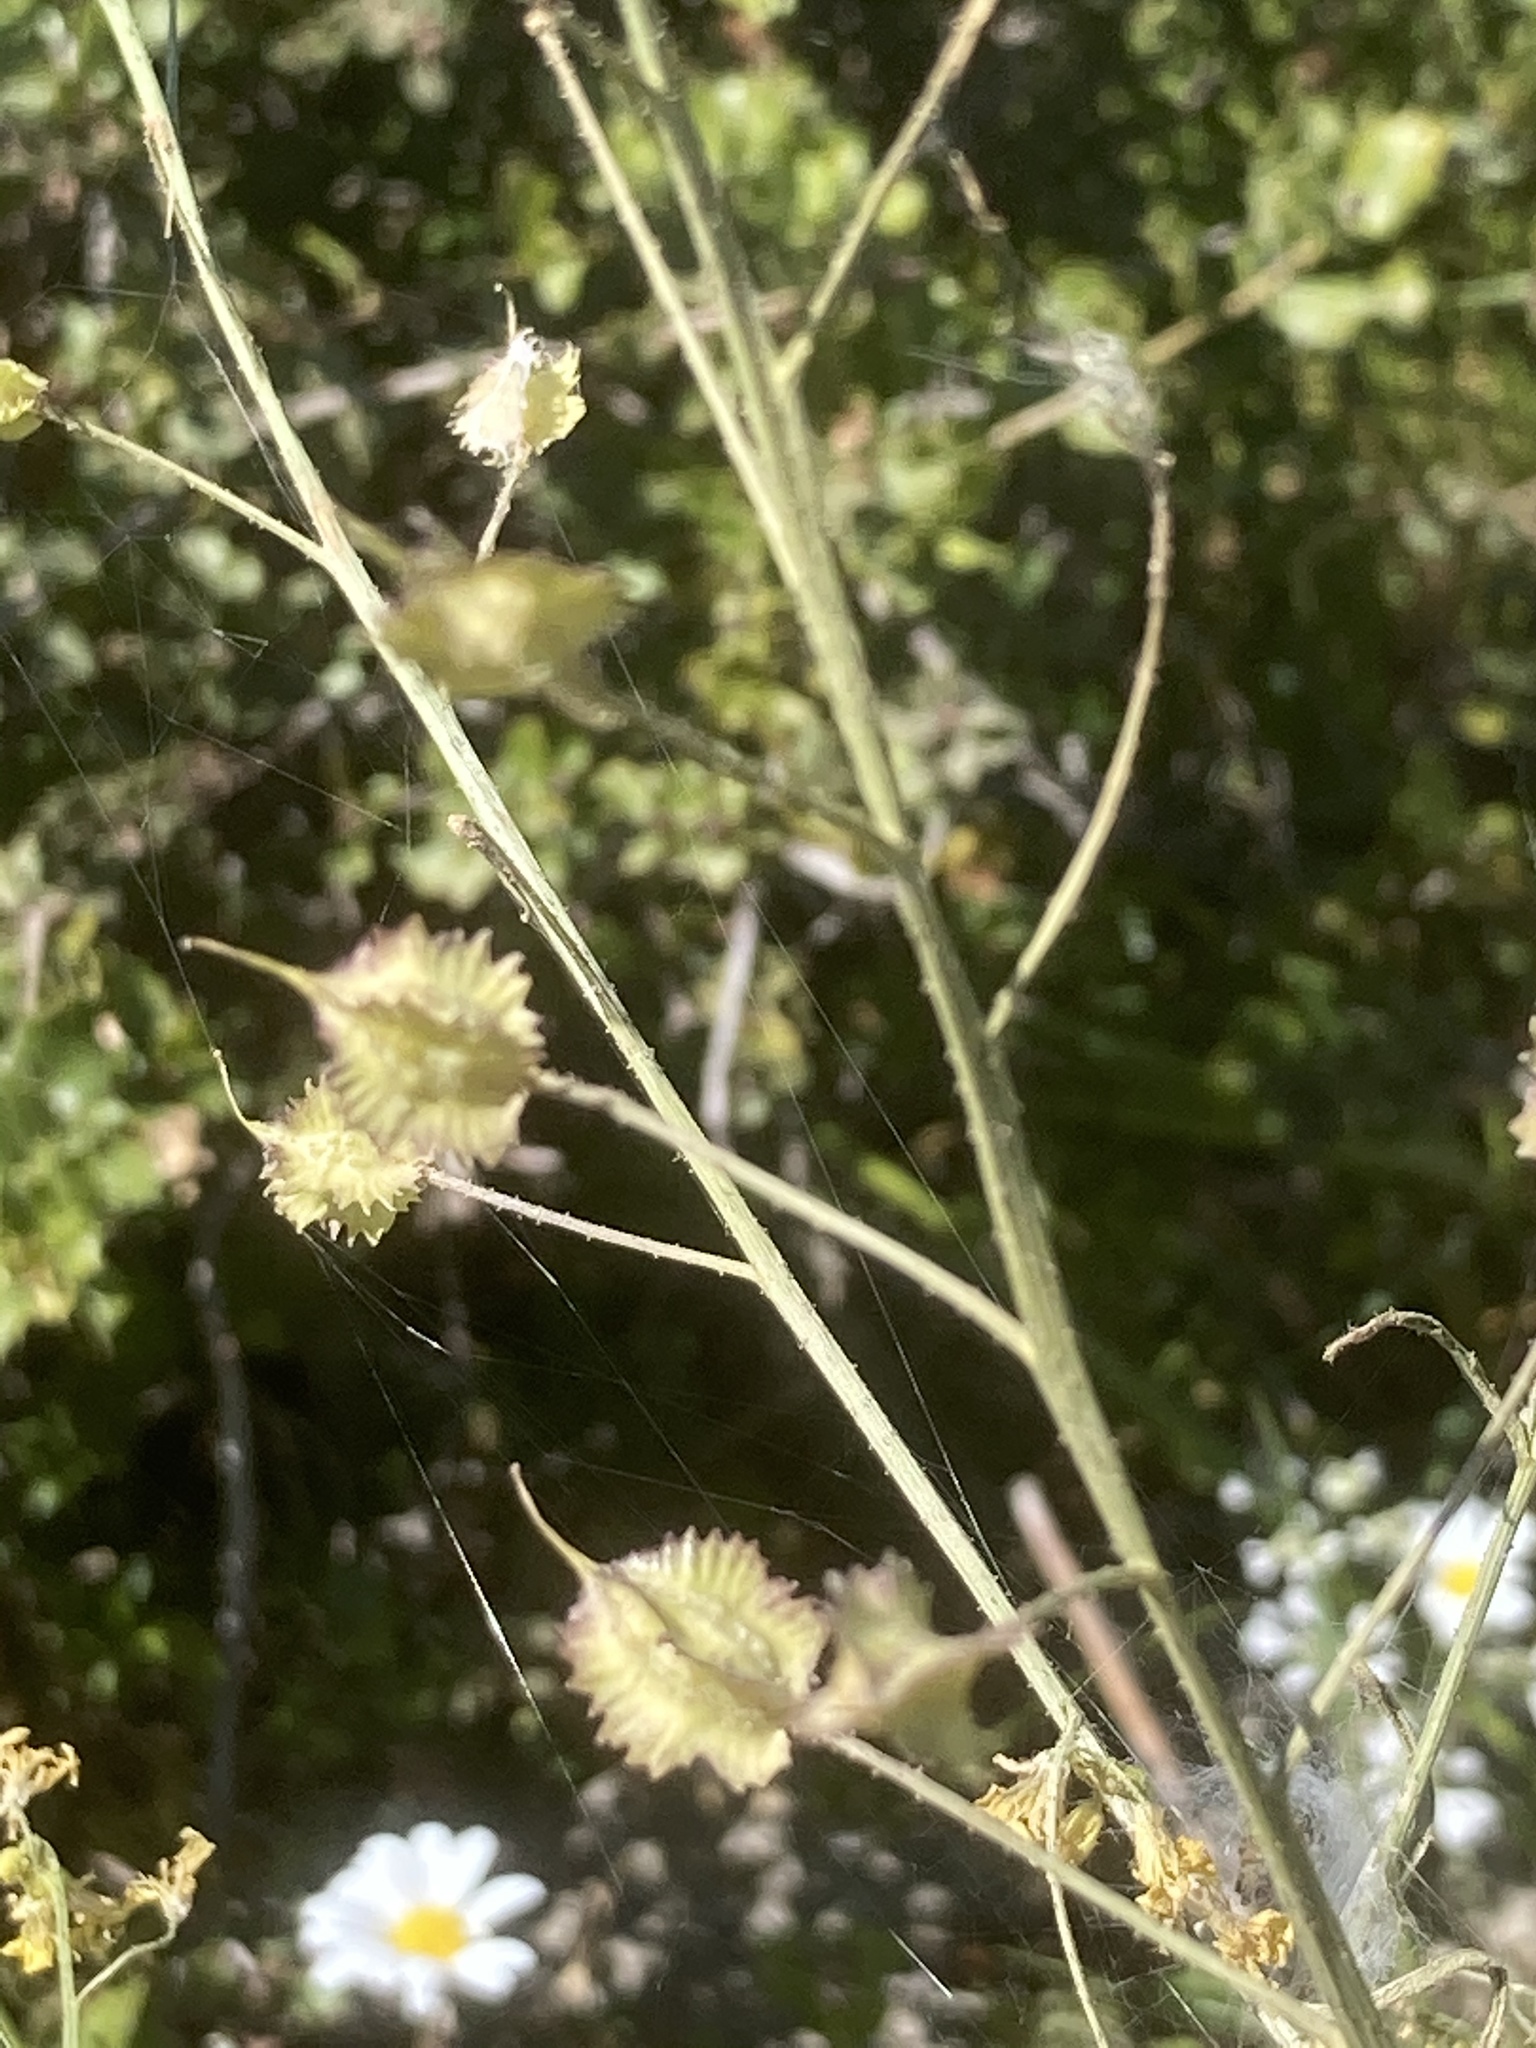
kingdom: Plantae
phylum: Tracheophyta
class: Magnoliopsida
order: Brassicales
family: Brassicaceae
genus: Bunias
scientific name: Bunias erucago
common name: Southern warty-cabbage
